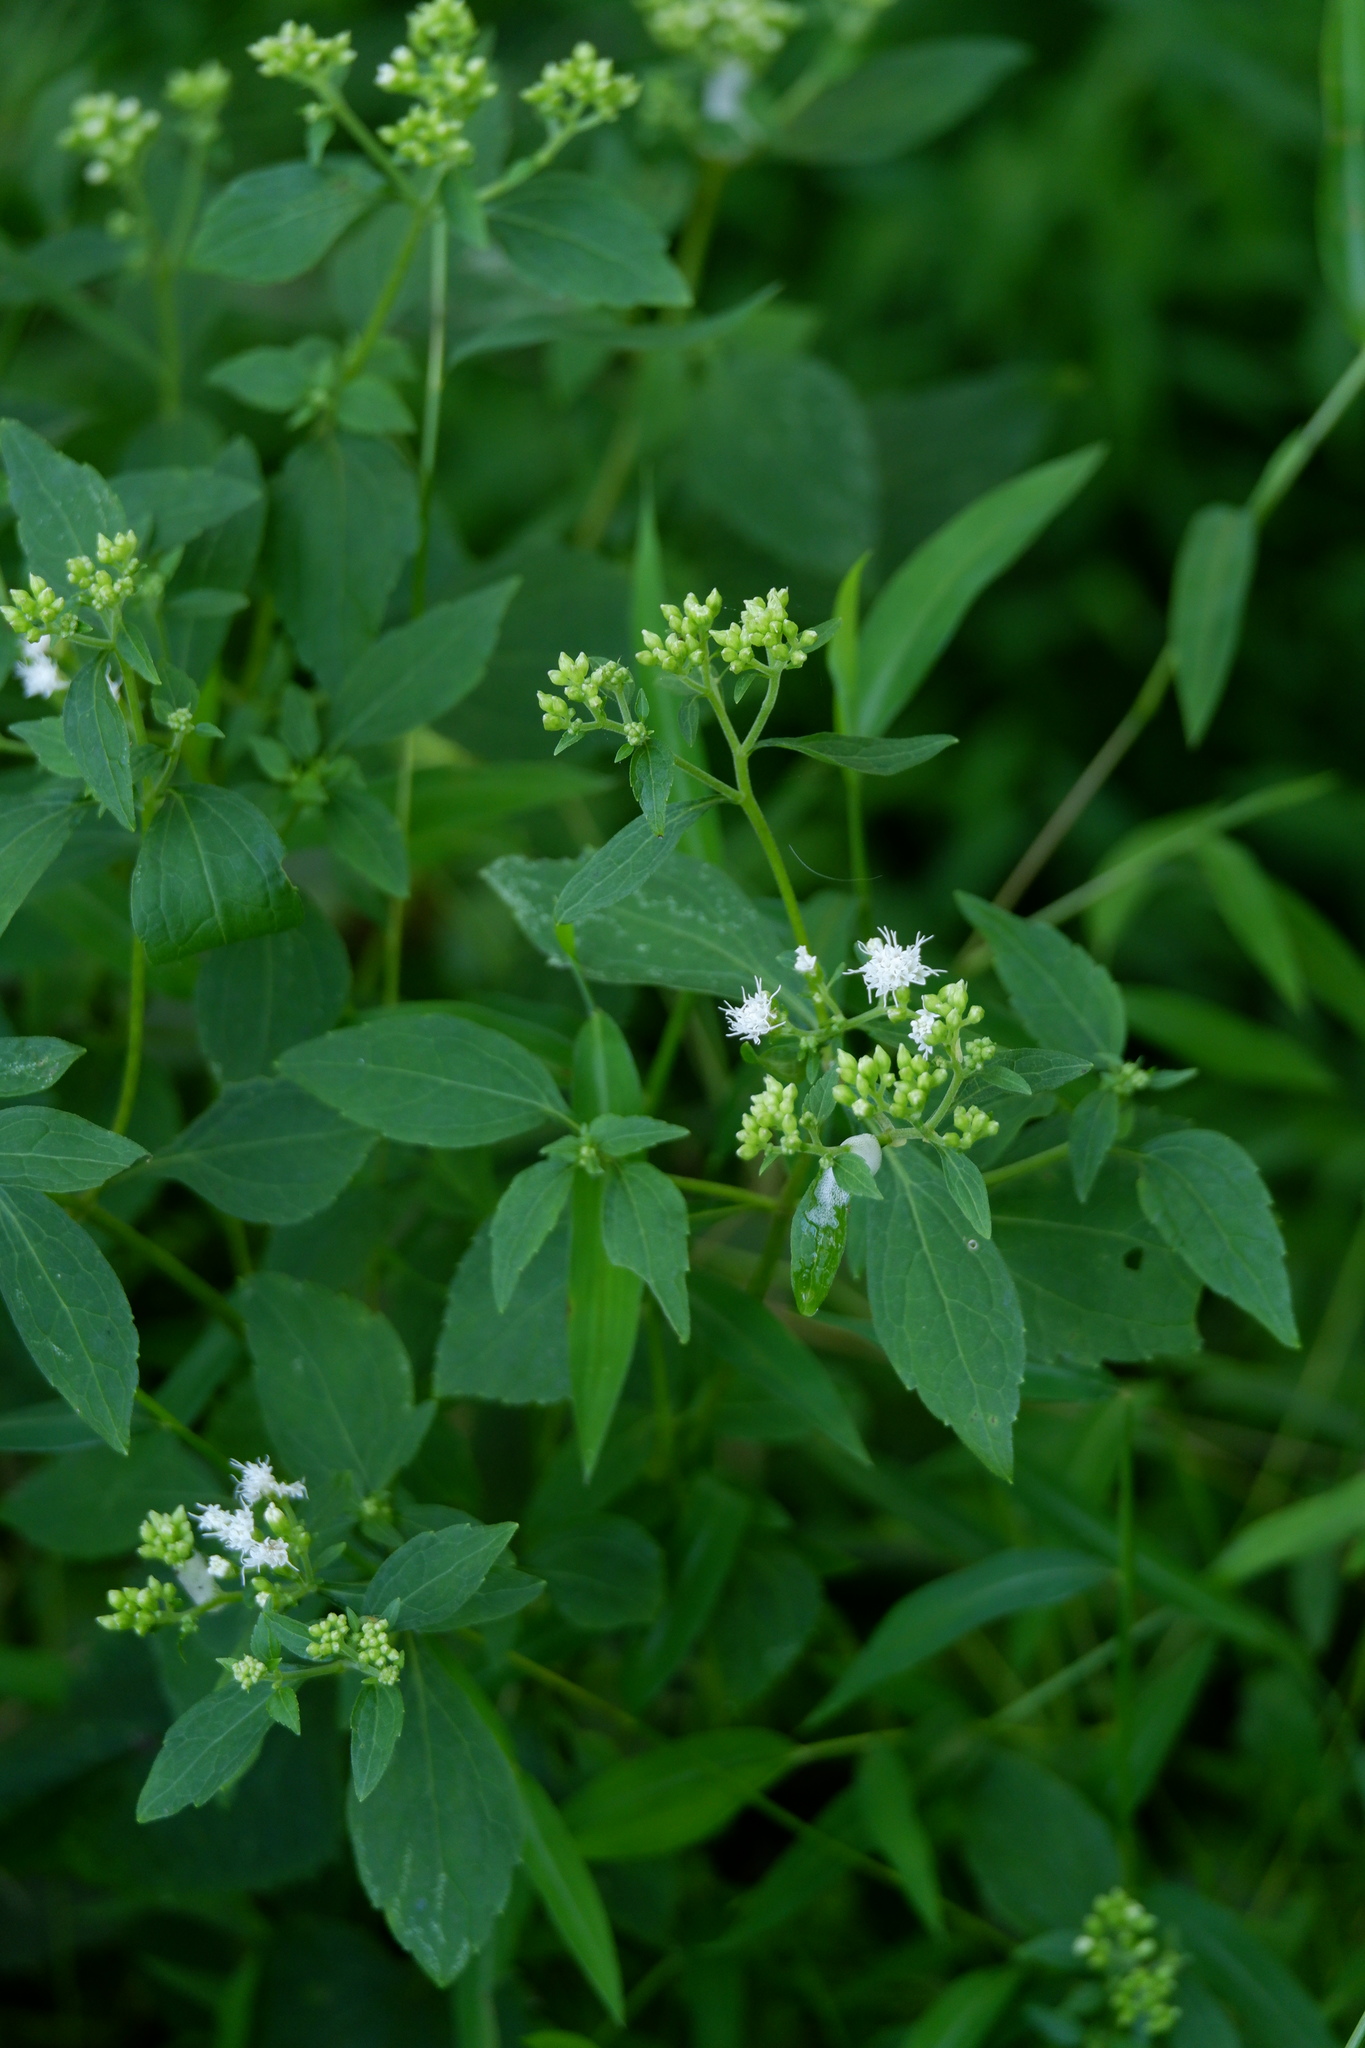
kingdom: Plantae
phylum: Tracheophyta
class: Magnoliopsida
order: Asterales
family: Asteraceae
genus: Ageratina
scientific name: Ageratina altissima
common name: White snakeroot
